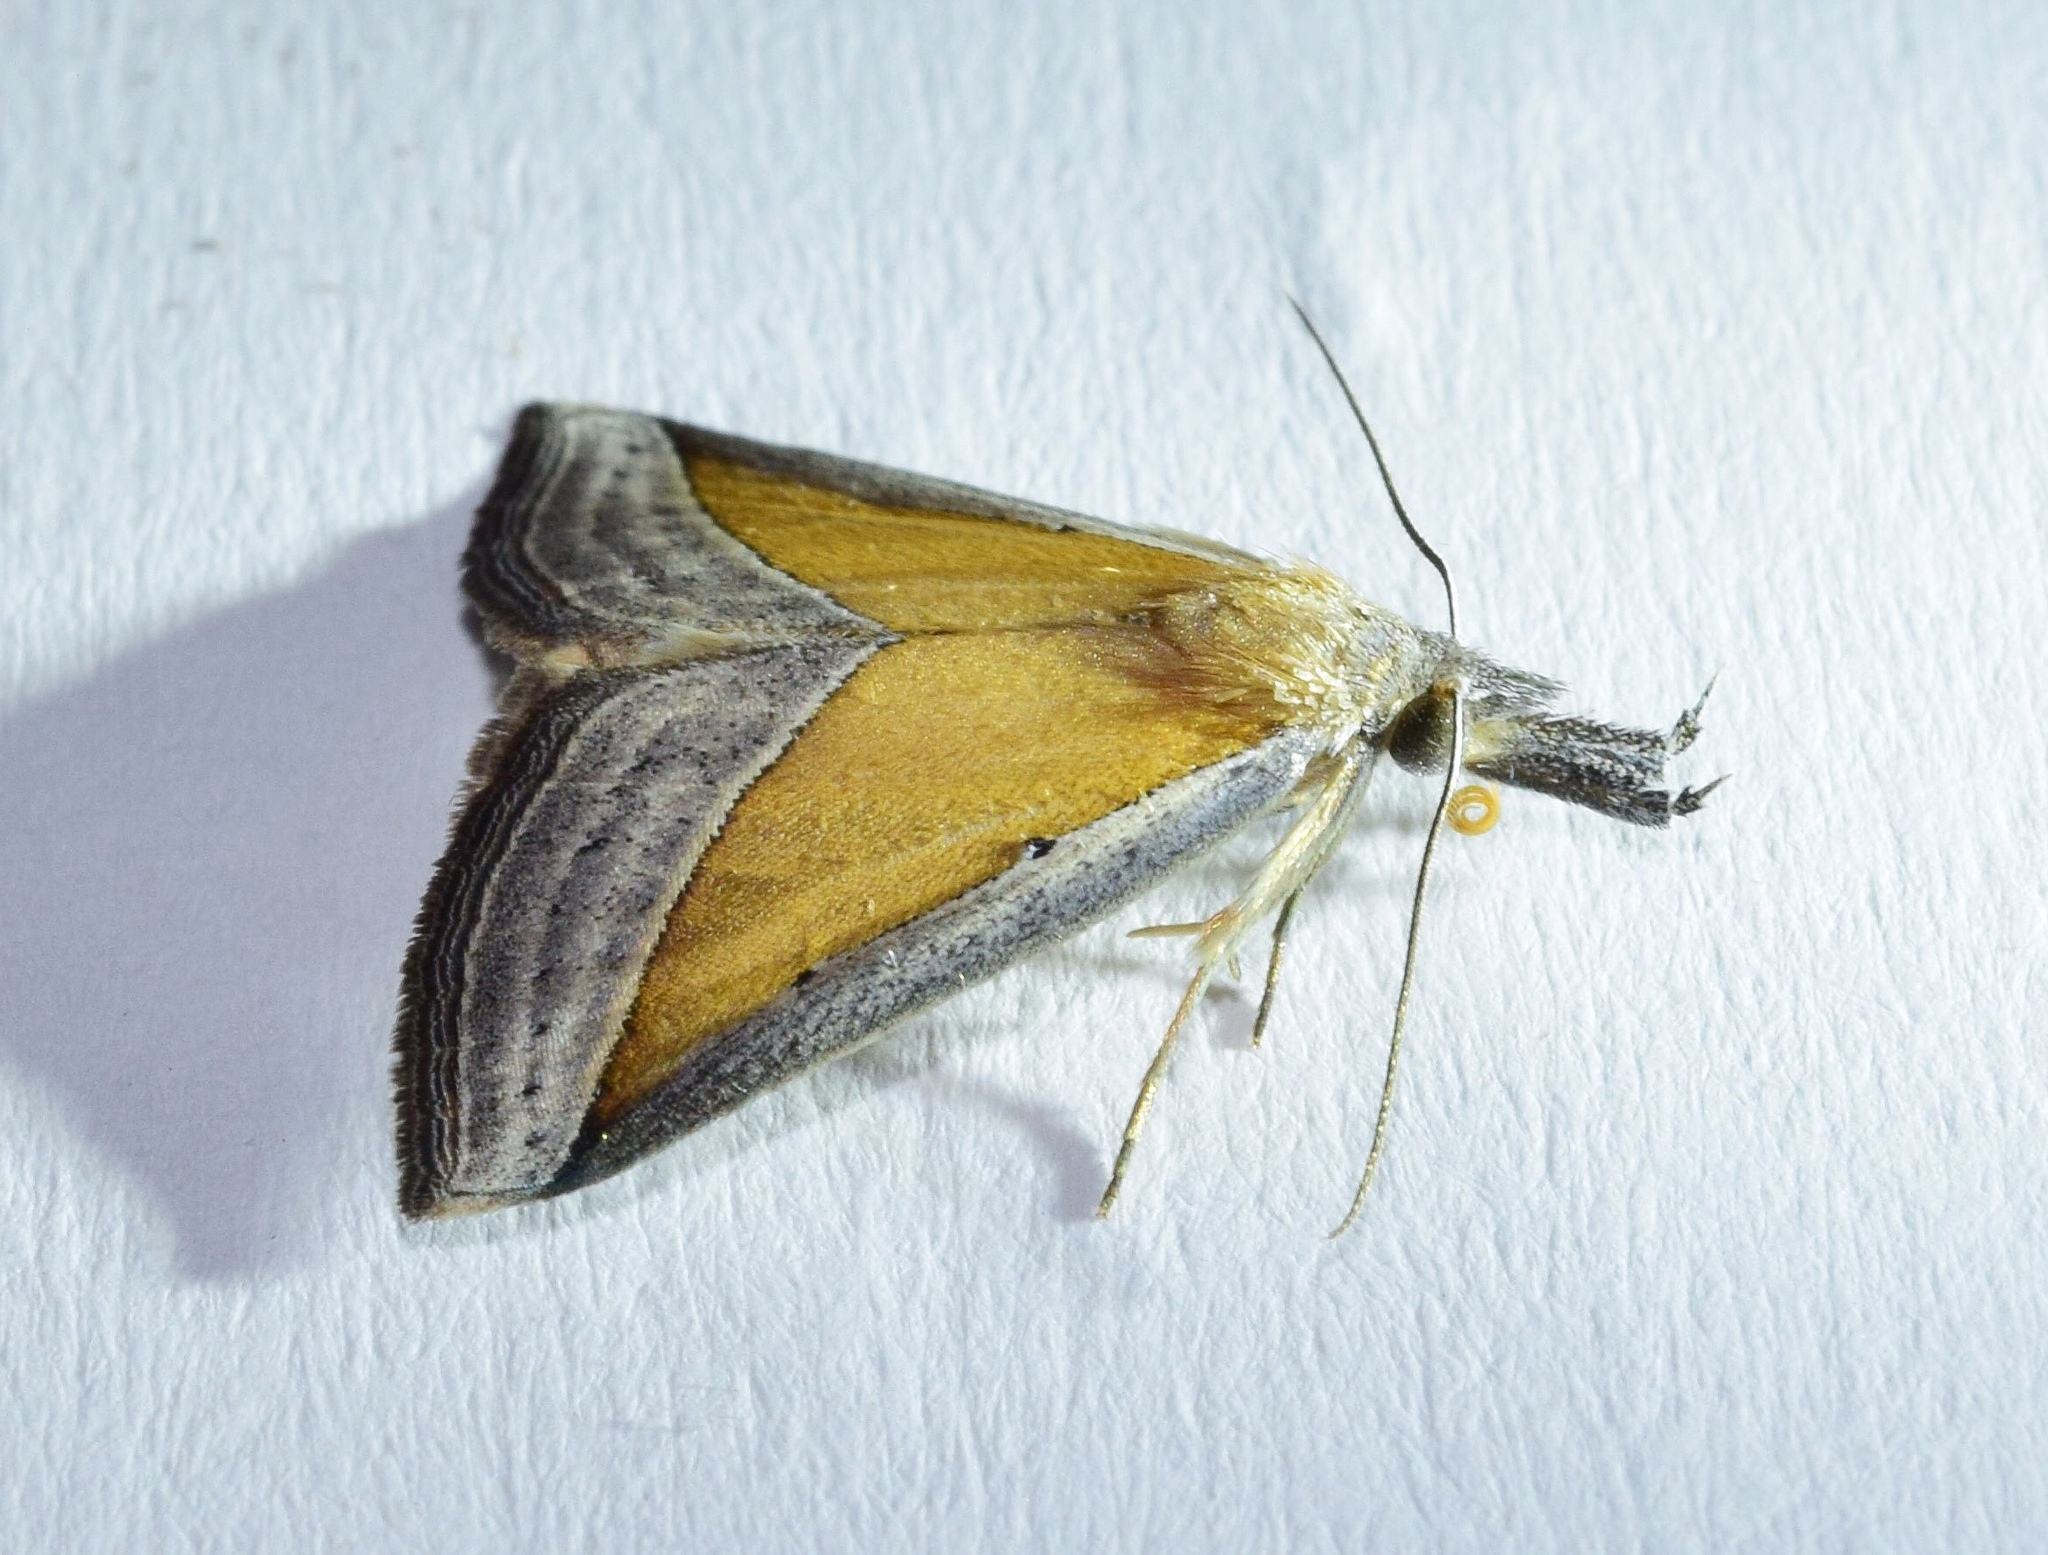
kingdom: Animalia
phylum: Arthropoda
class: Insecta
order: Lepidoptera
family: Erebidae
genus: Hypena
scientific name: Hypena conscitalis
